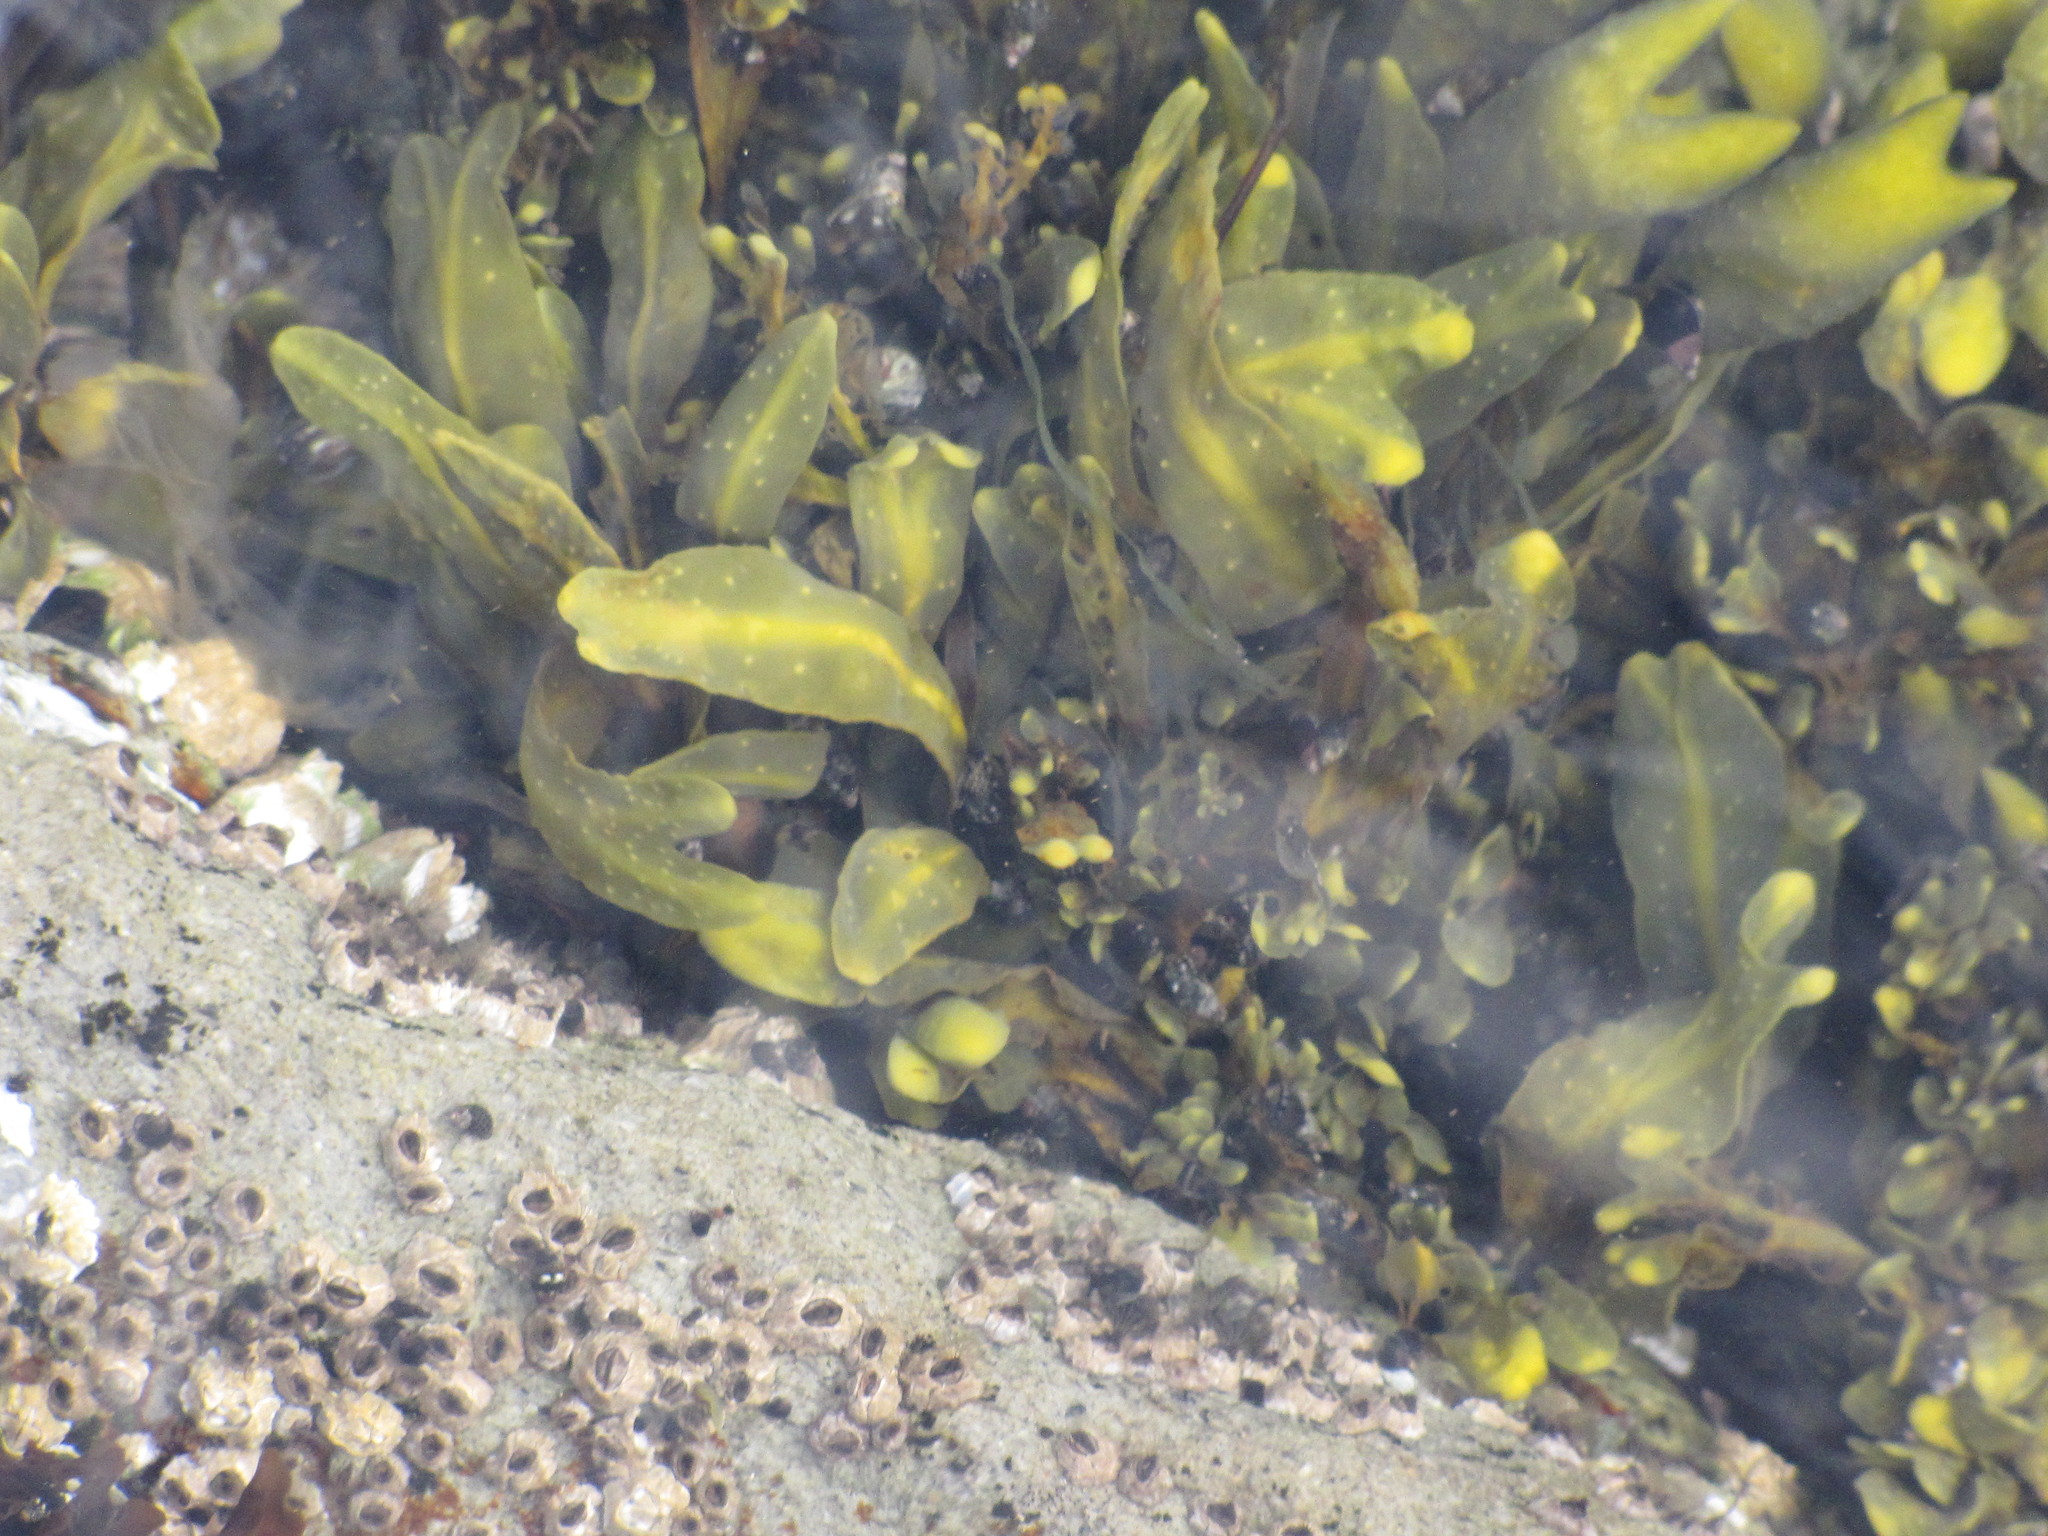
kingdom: Chromista
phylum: Ochrophyta
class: Phaeophyceae
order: Fucales
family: Fucaceae
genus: Fucus
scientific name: Fucus distichus
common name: Rockweed
